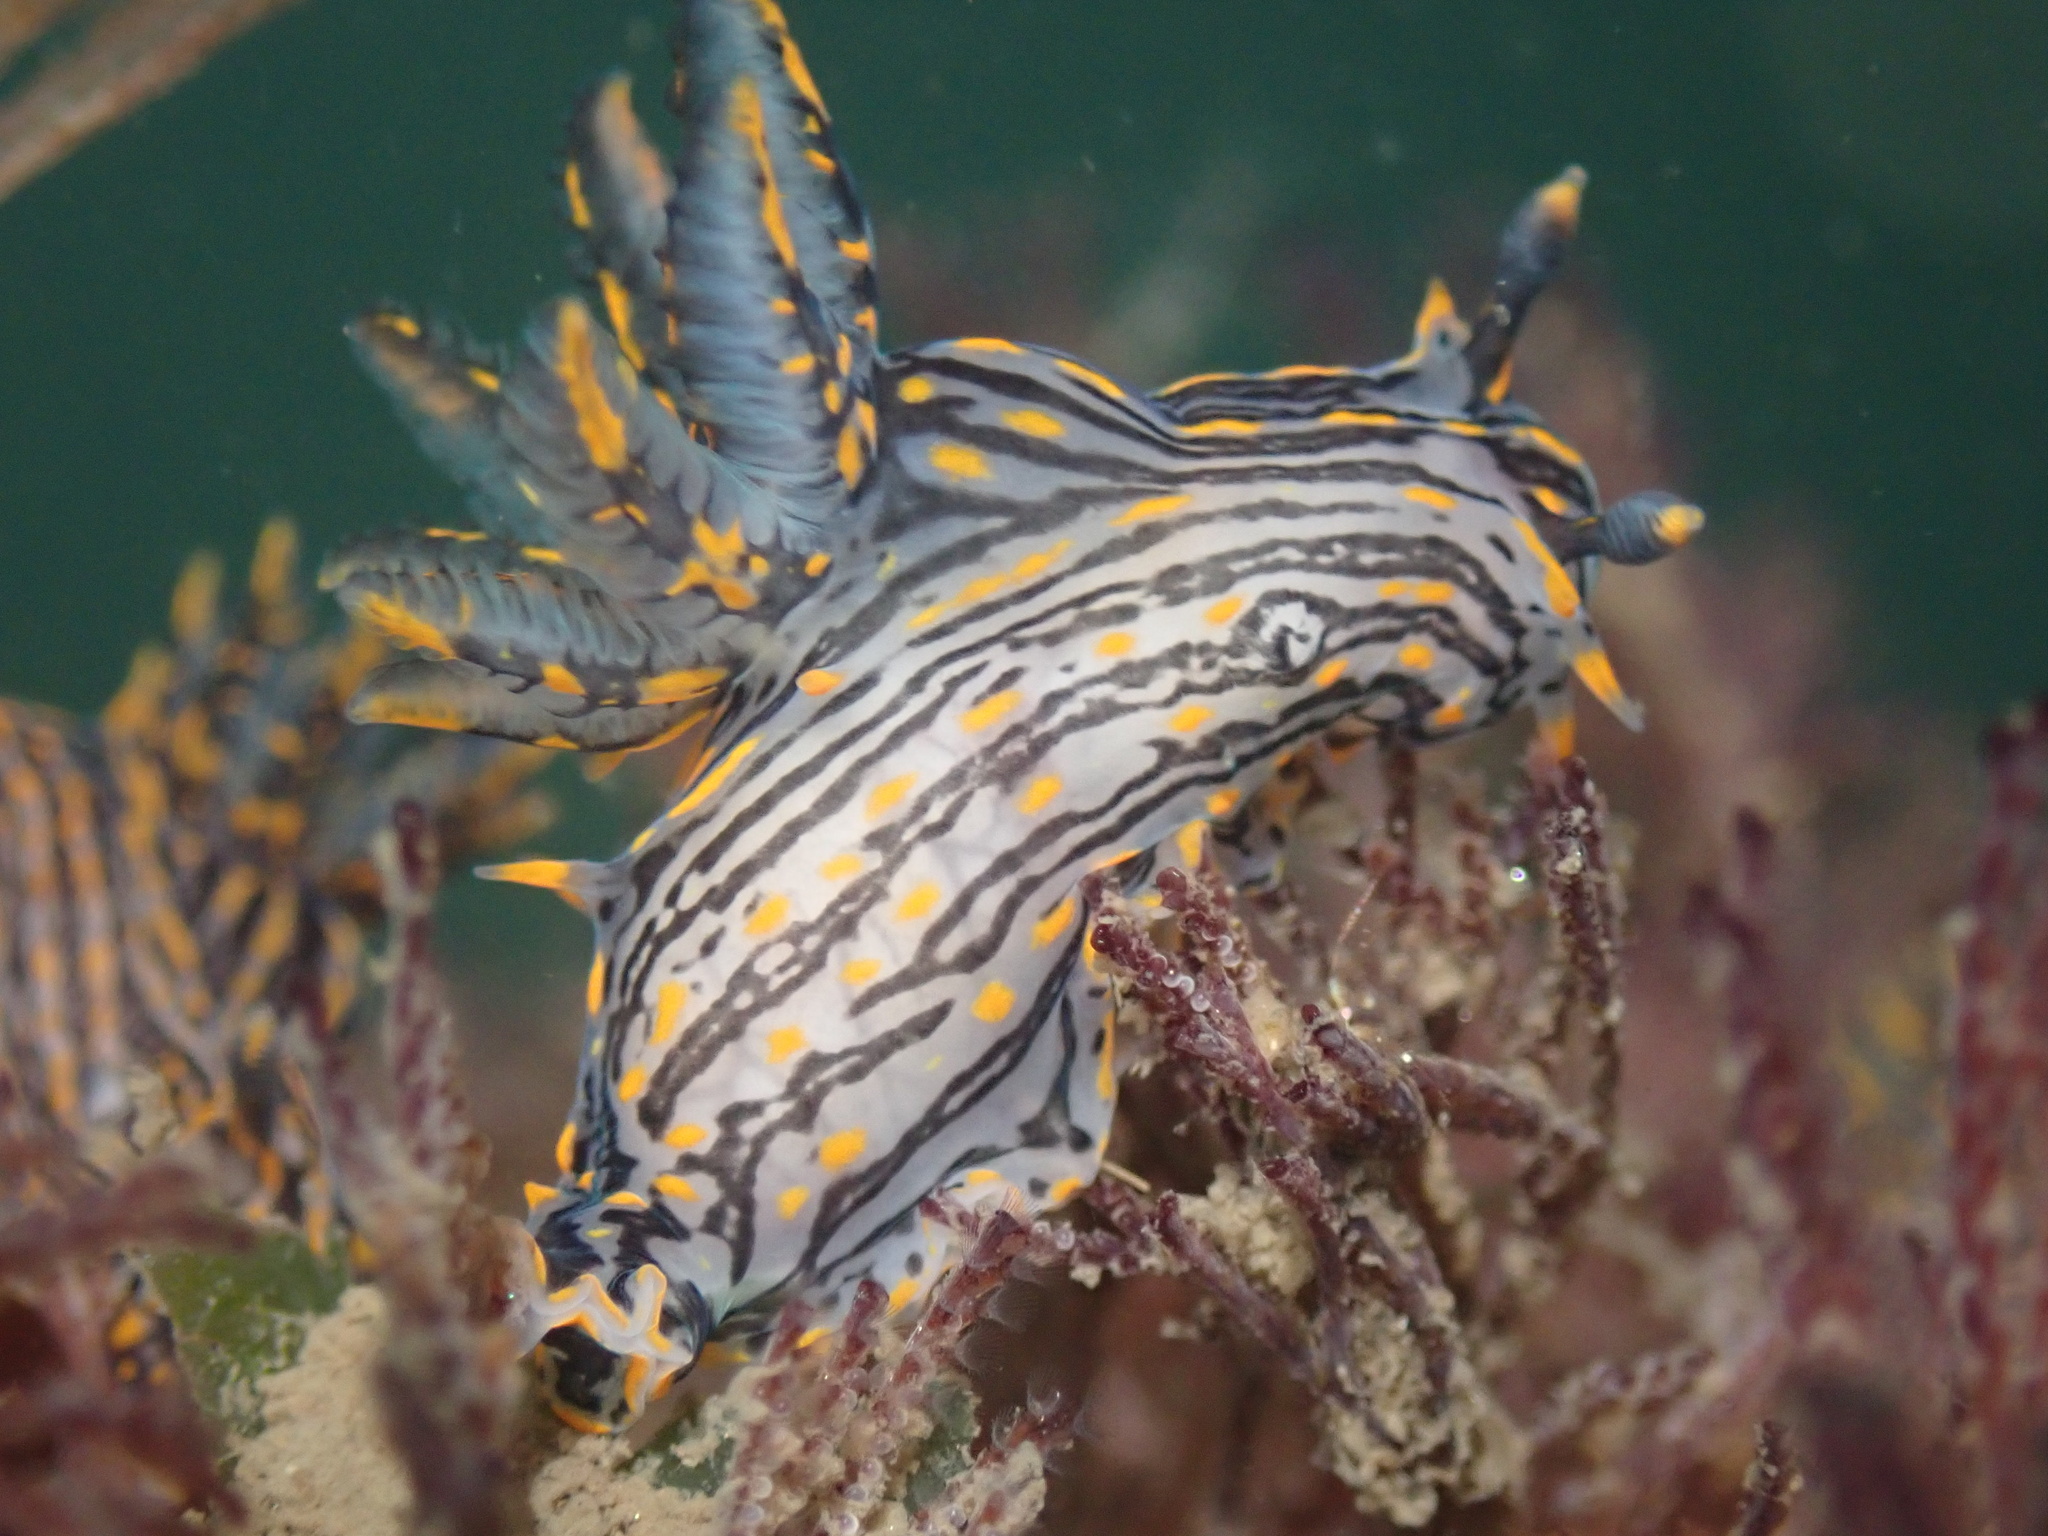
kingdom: Animalia
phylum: Mollusca
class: Gastropoda
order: Nudibranchia
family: Polyceridae
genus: Polycera
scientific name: Polycera atra
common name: Orange-spike polycera
